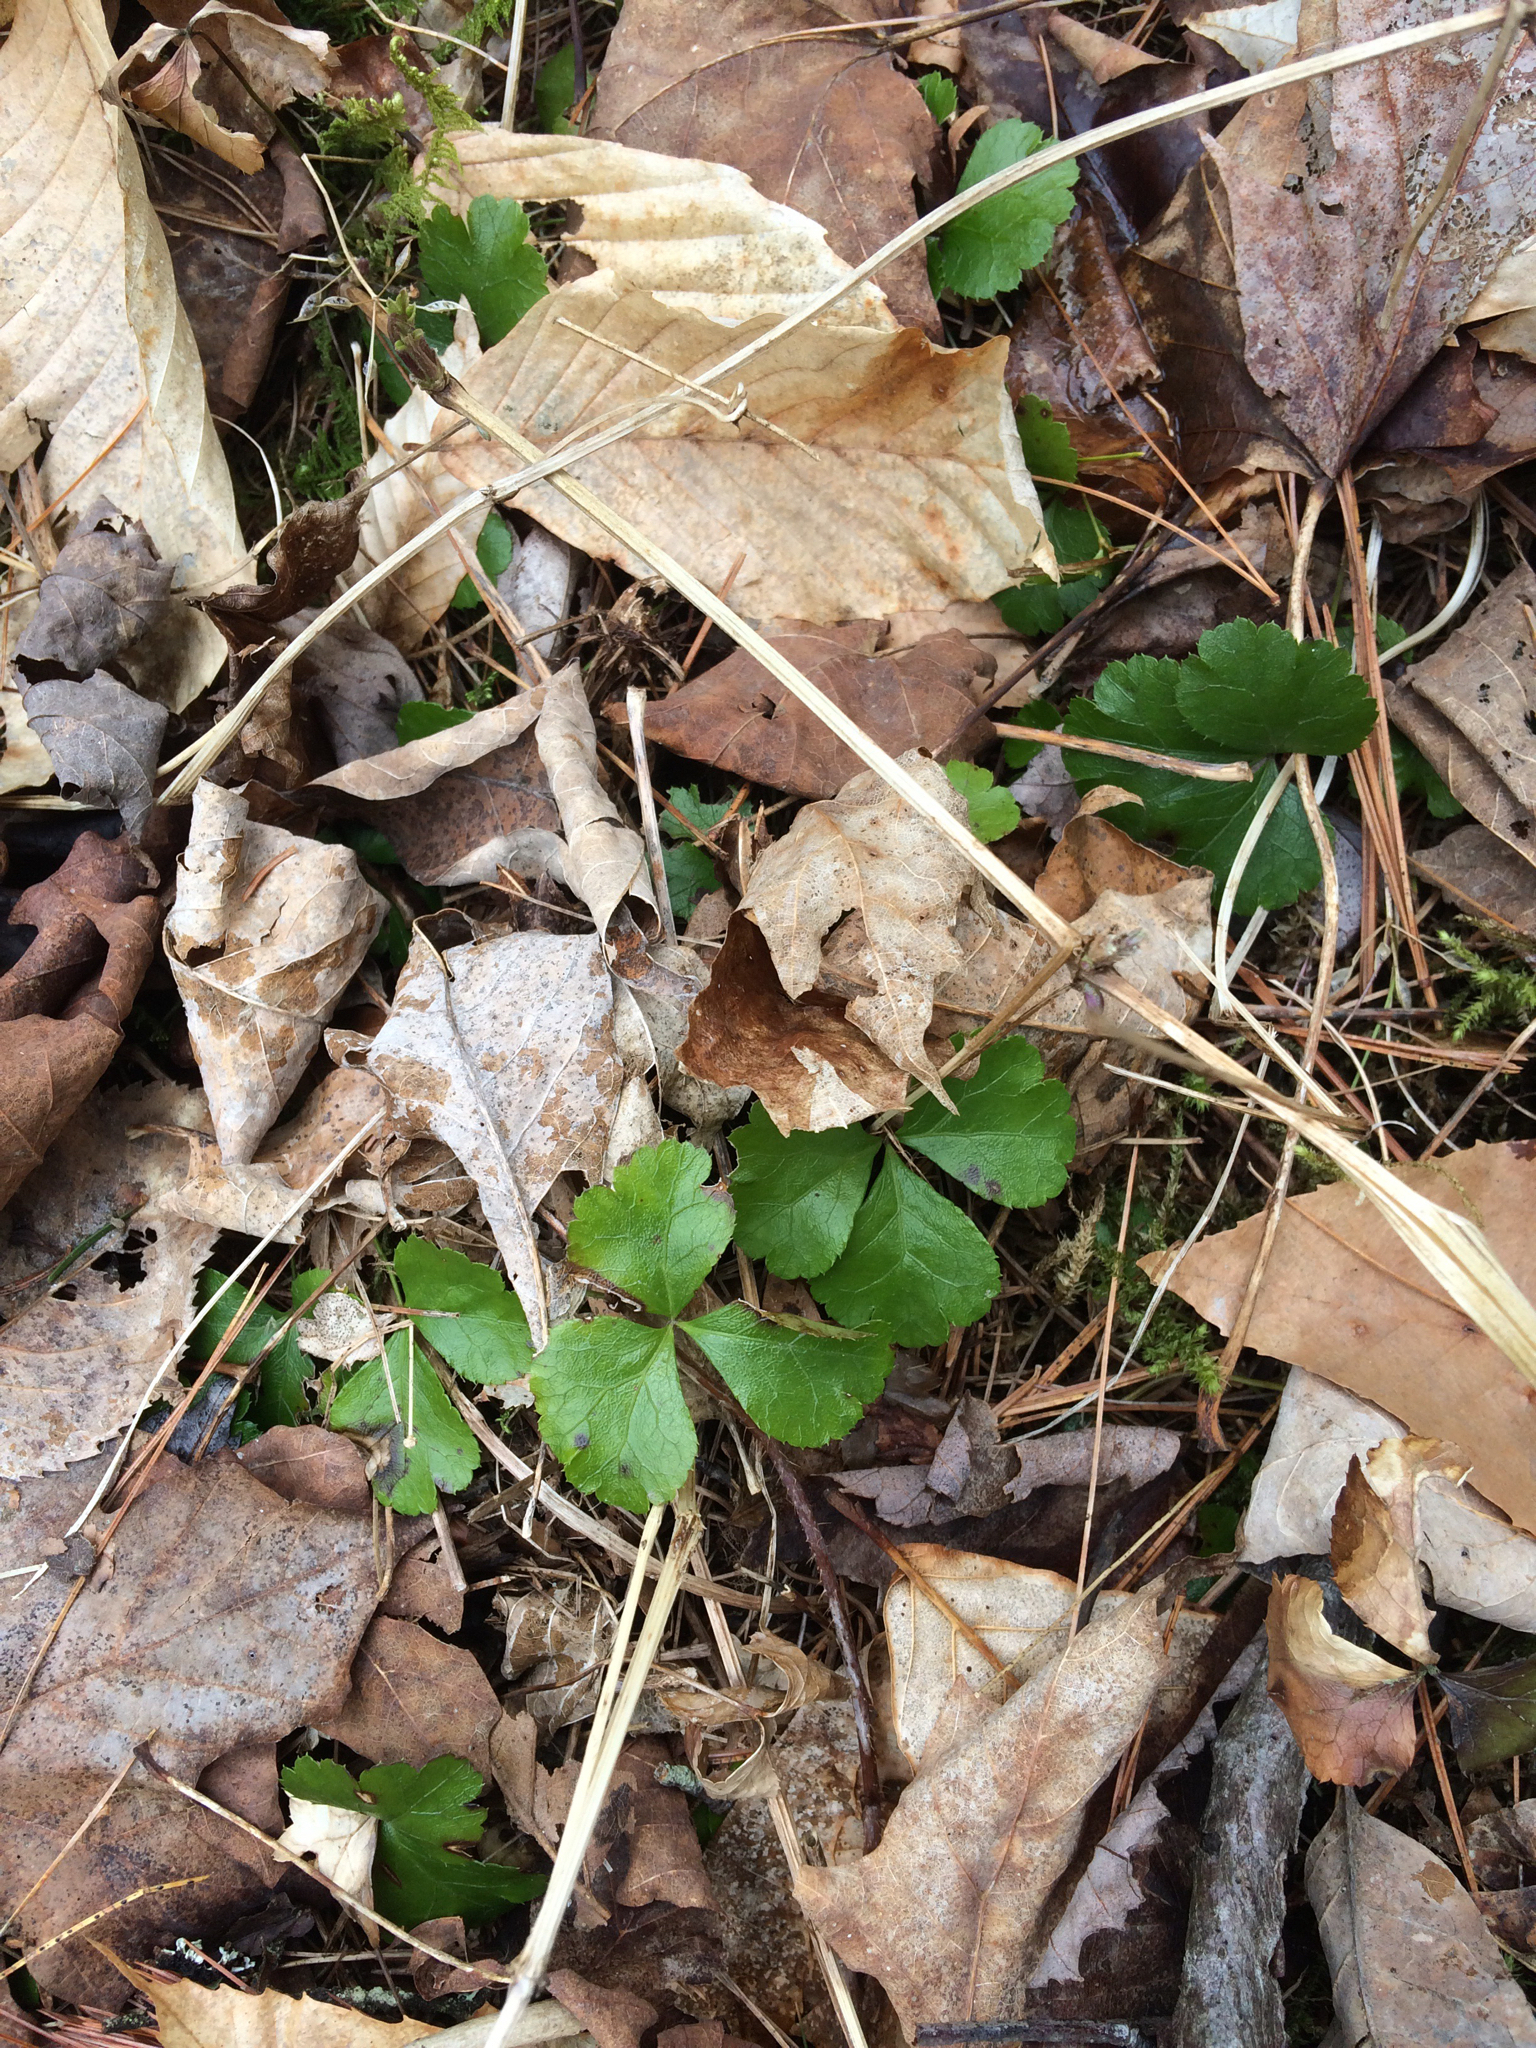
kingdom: Plantae
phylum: Tracheophyta
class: Magnoliopsida
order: Ranunculales
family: Ranunculaceae
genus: Coptis
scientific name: Coptis trifolia
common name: Canker-root
